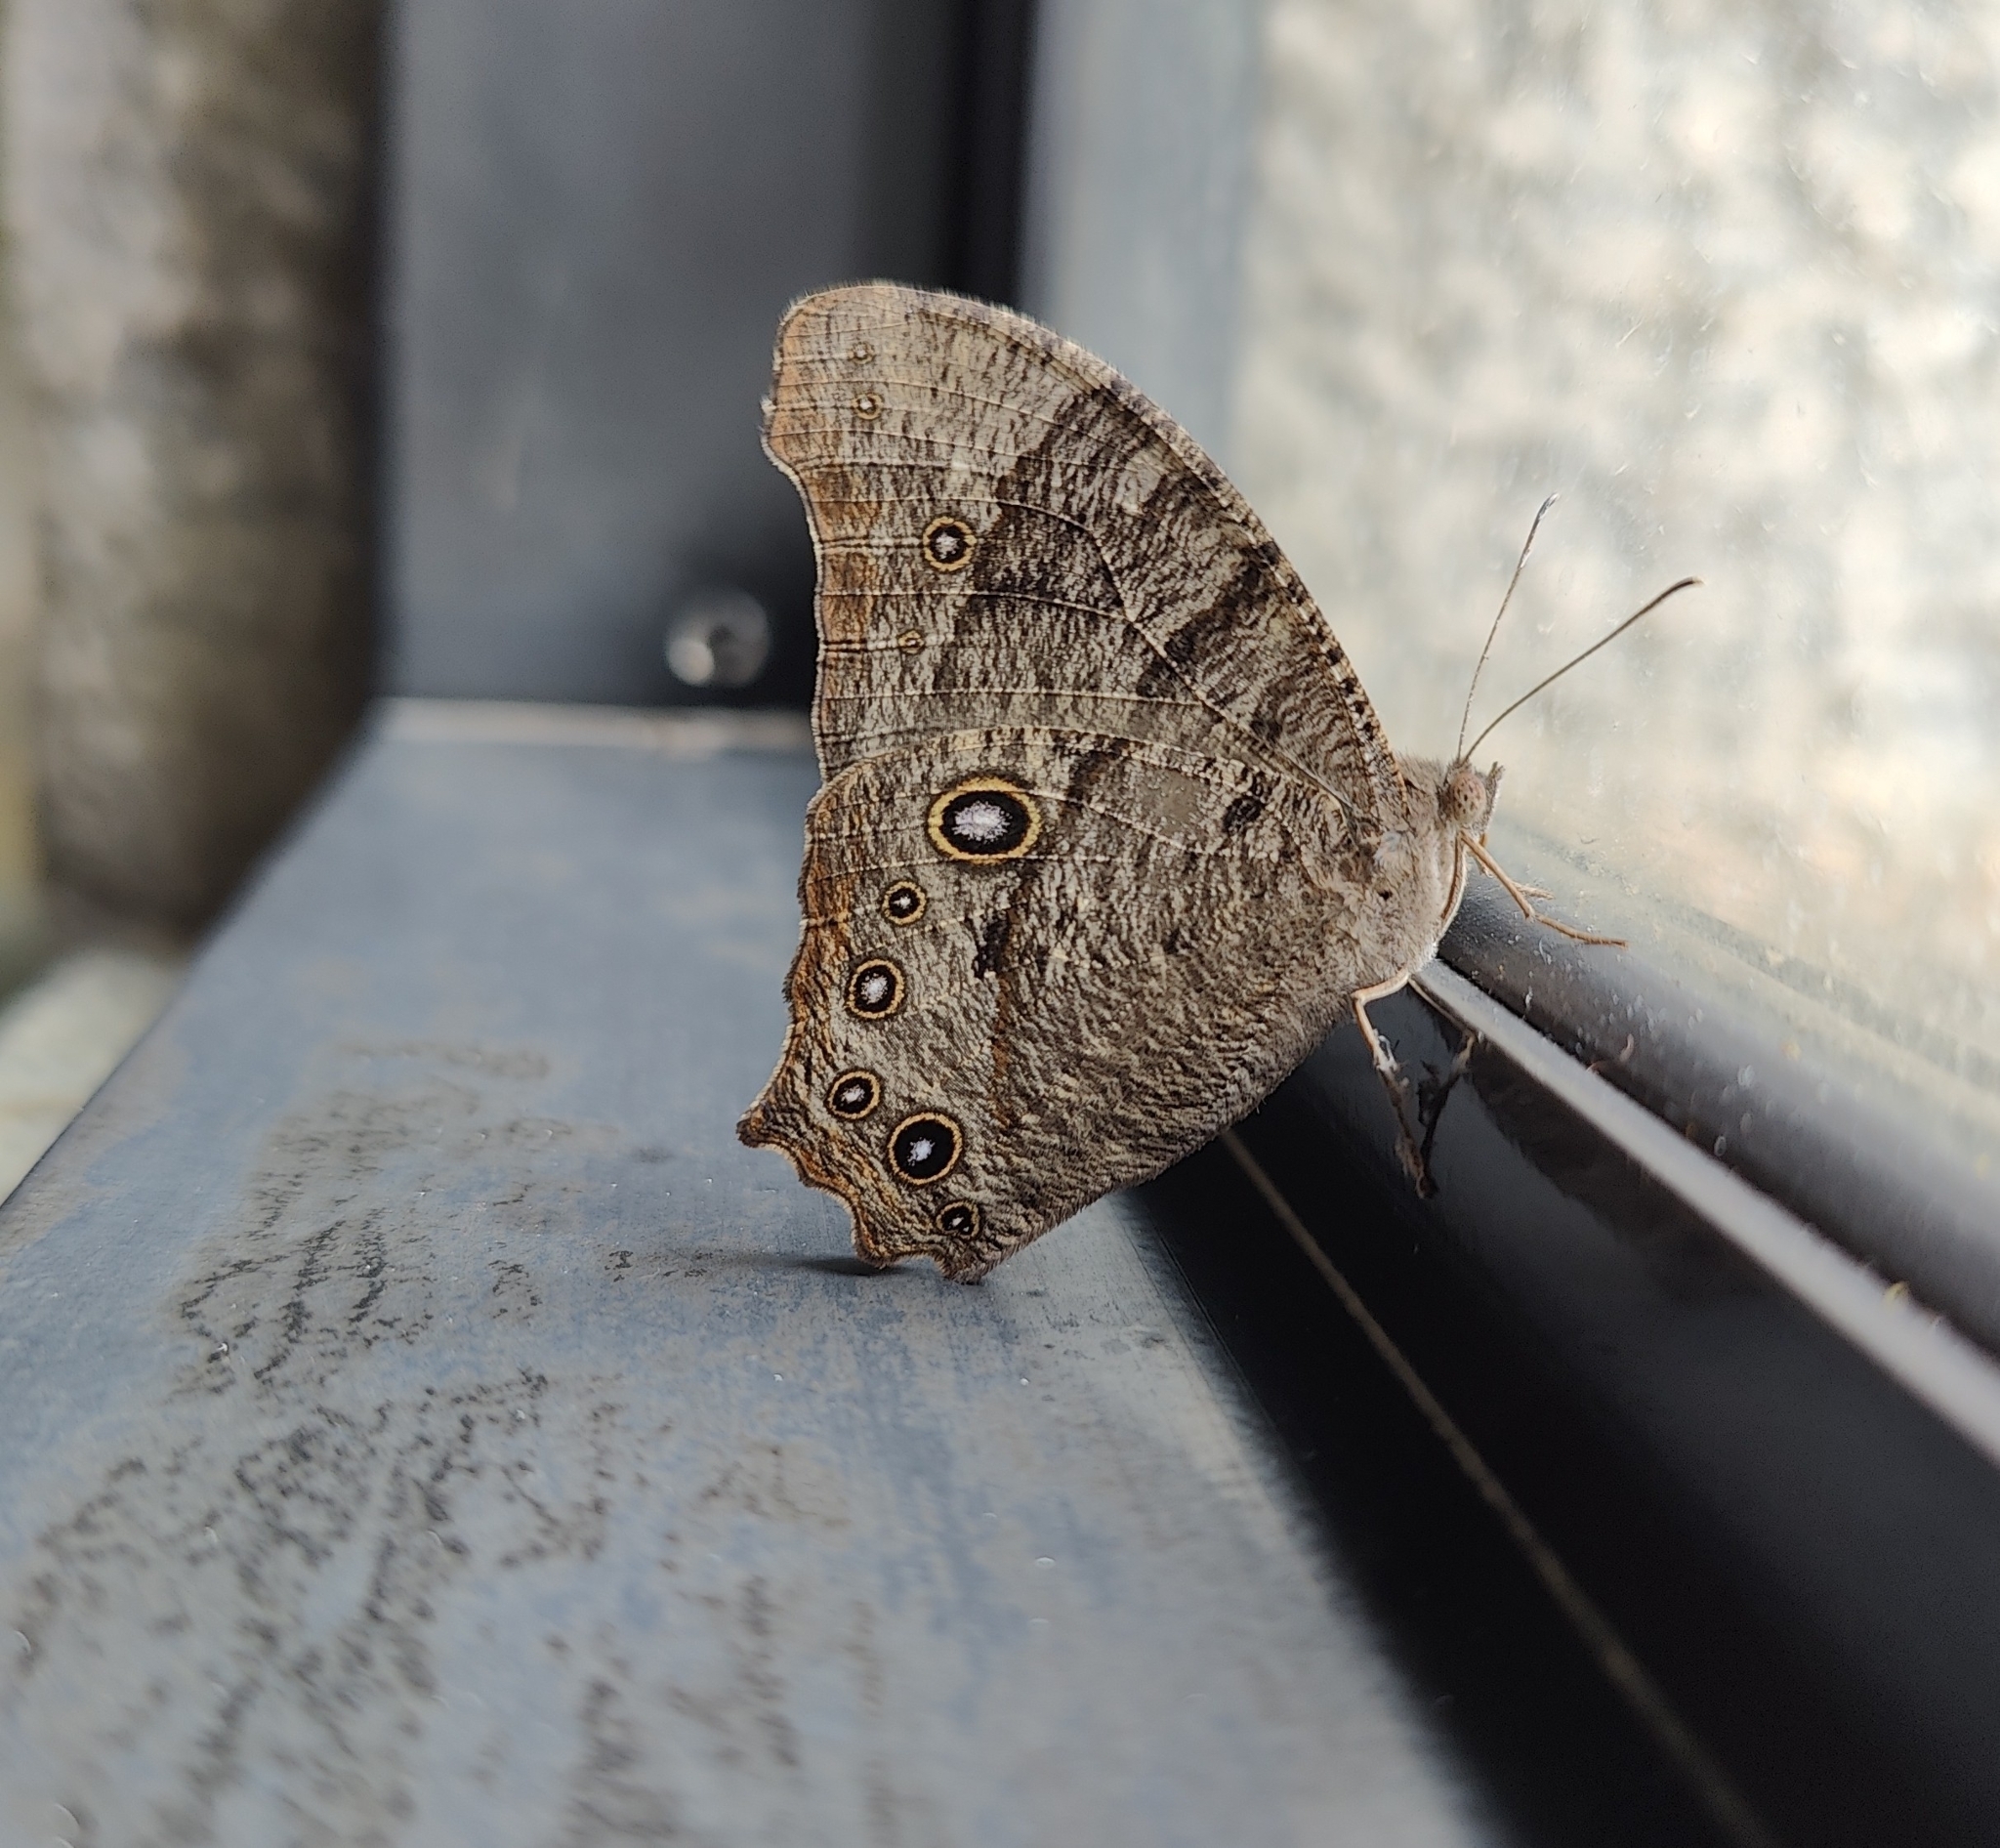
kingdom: Animalia
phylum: Arthropoda
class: Insecta
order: Lepidoptera
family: Nymphalidae
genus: Melanitis
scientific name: Melanitis leda
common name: Twilight brown
